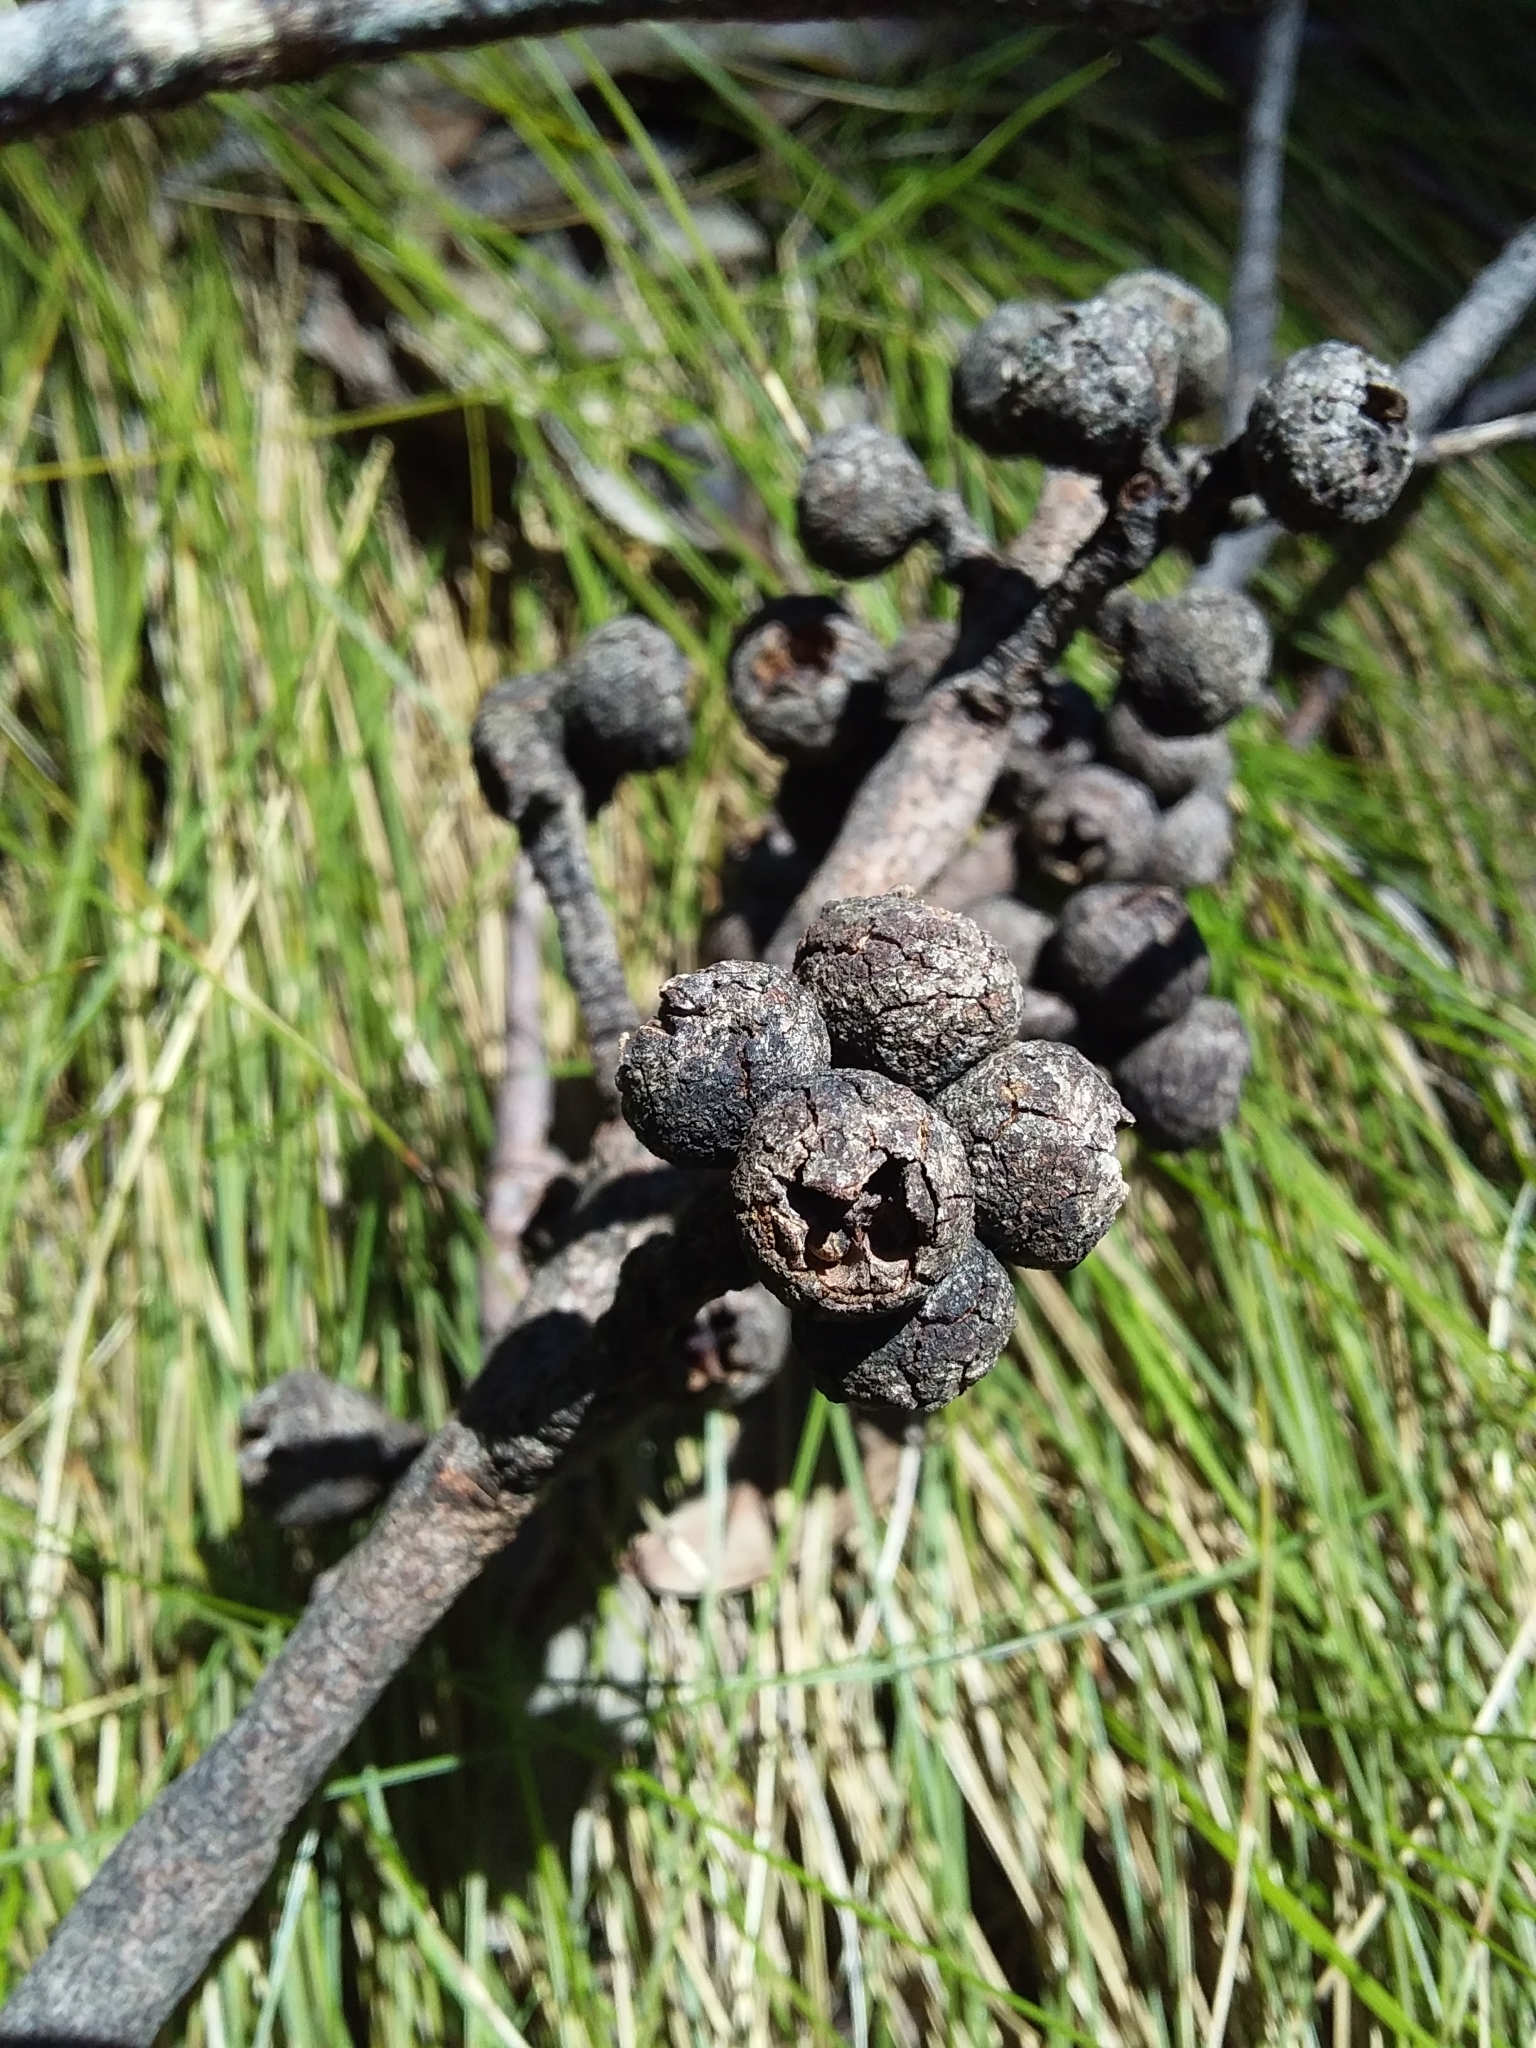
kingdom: Plantae
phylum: Tracheophyta
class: Magnoliopsida
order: Myrtales
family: Myrtaceae
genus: Eucalyptus
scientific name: Eucalyptus baxteri
